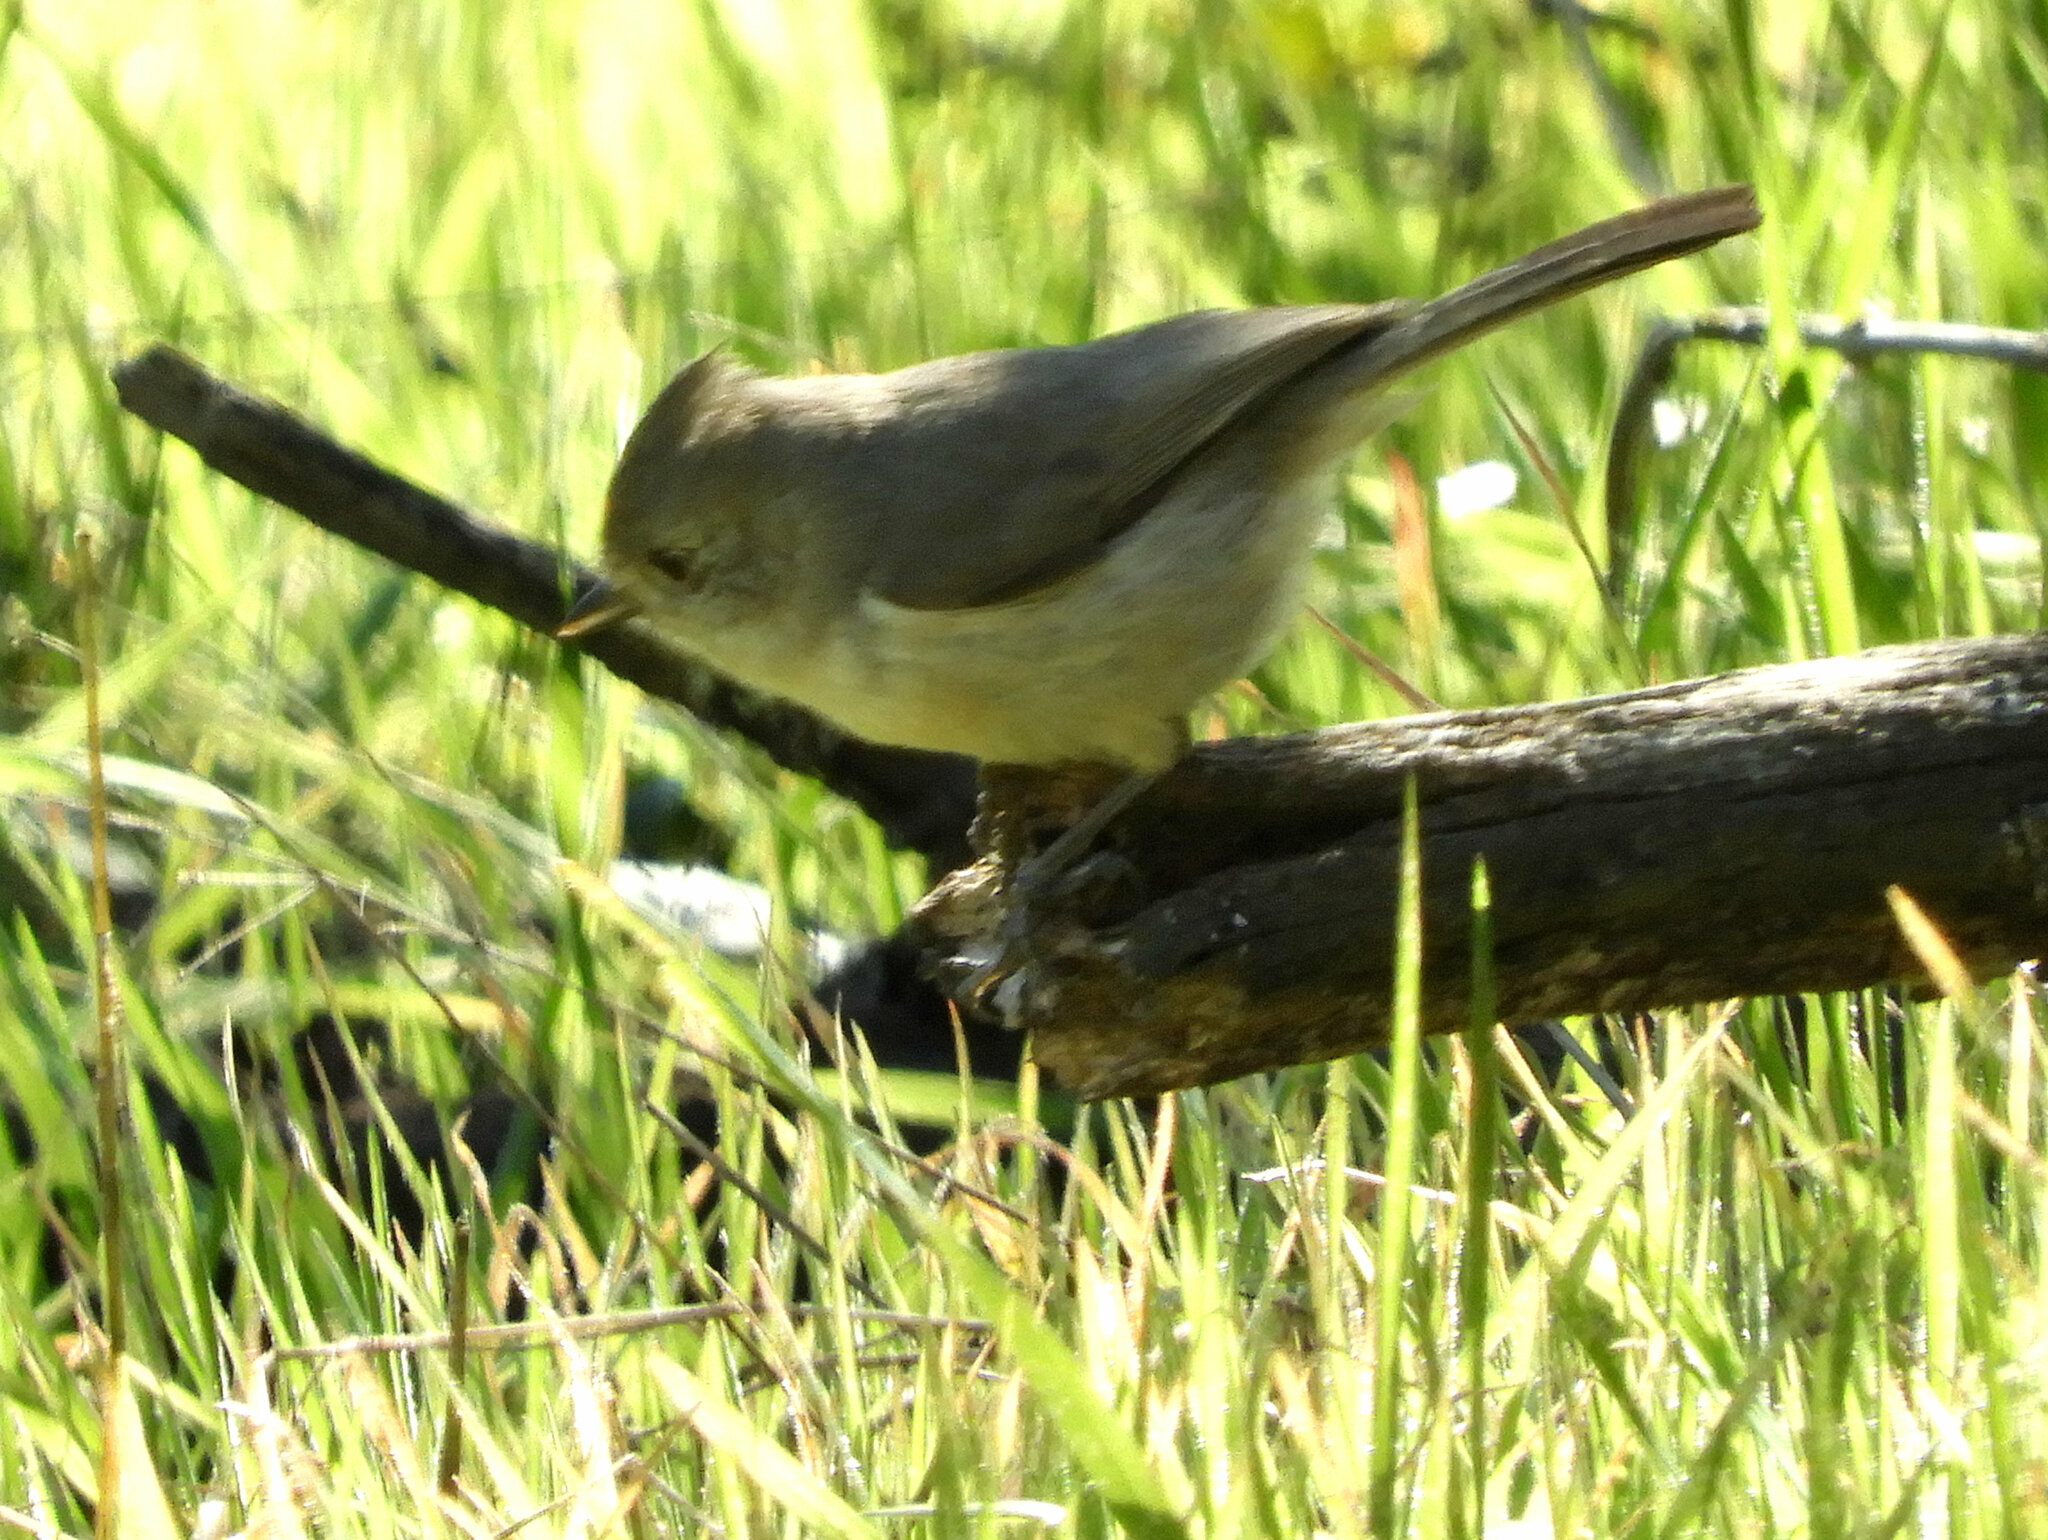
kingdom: Animalia
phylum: Chordata
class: Aves
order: Passeriformes
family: Paridae
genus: Baeolophus
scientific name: Baeolophus inornatus
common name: Oak titmouse
